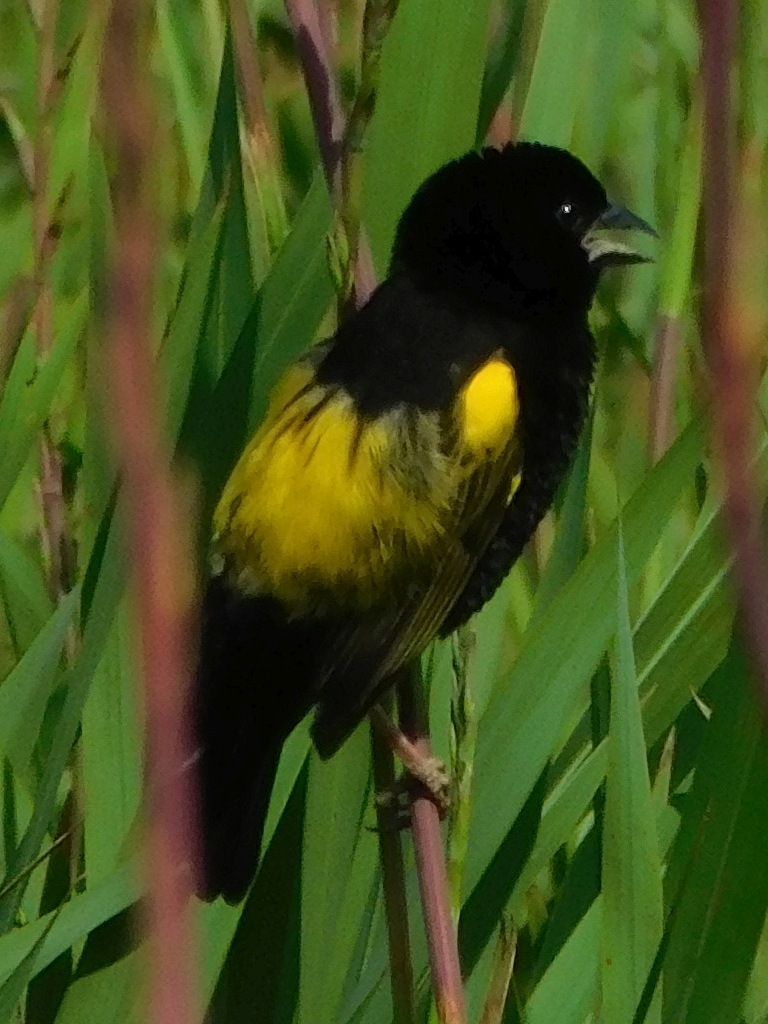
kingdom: Animalia
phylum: Chordata
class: Aves
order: Passeriformes
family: Ploceidae
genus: Euplectes
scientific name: Euplectes capensis
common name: Yellow bishop
